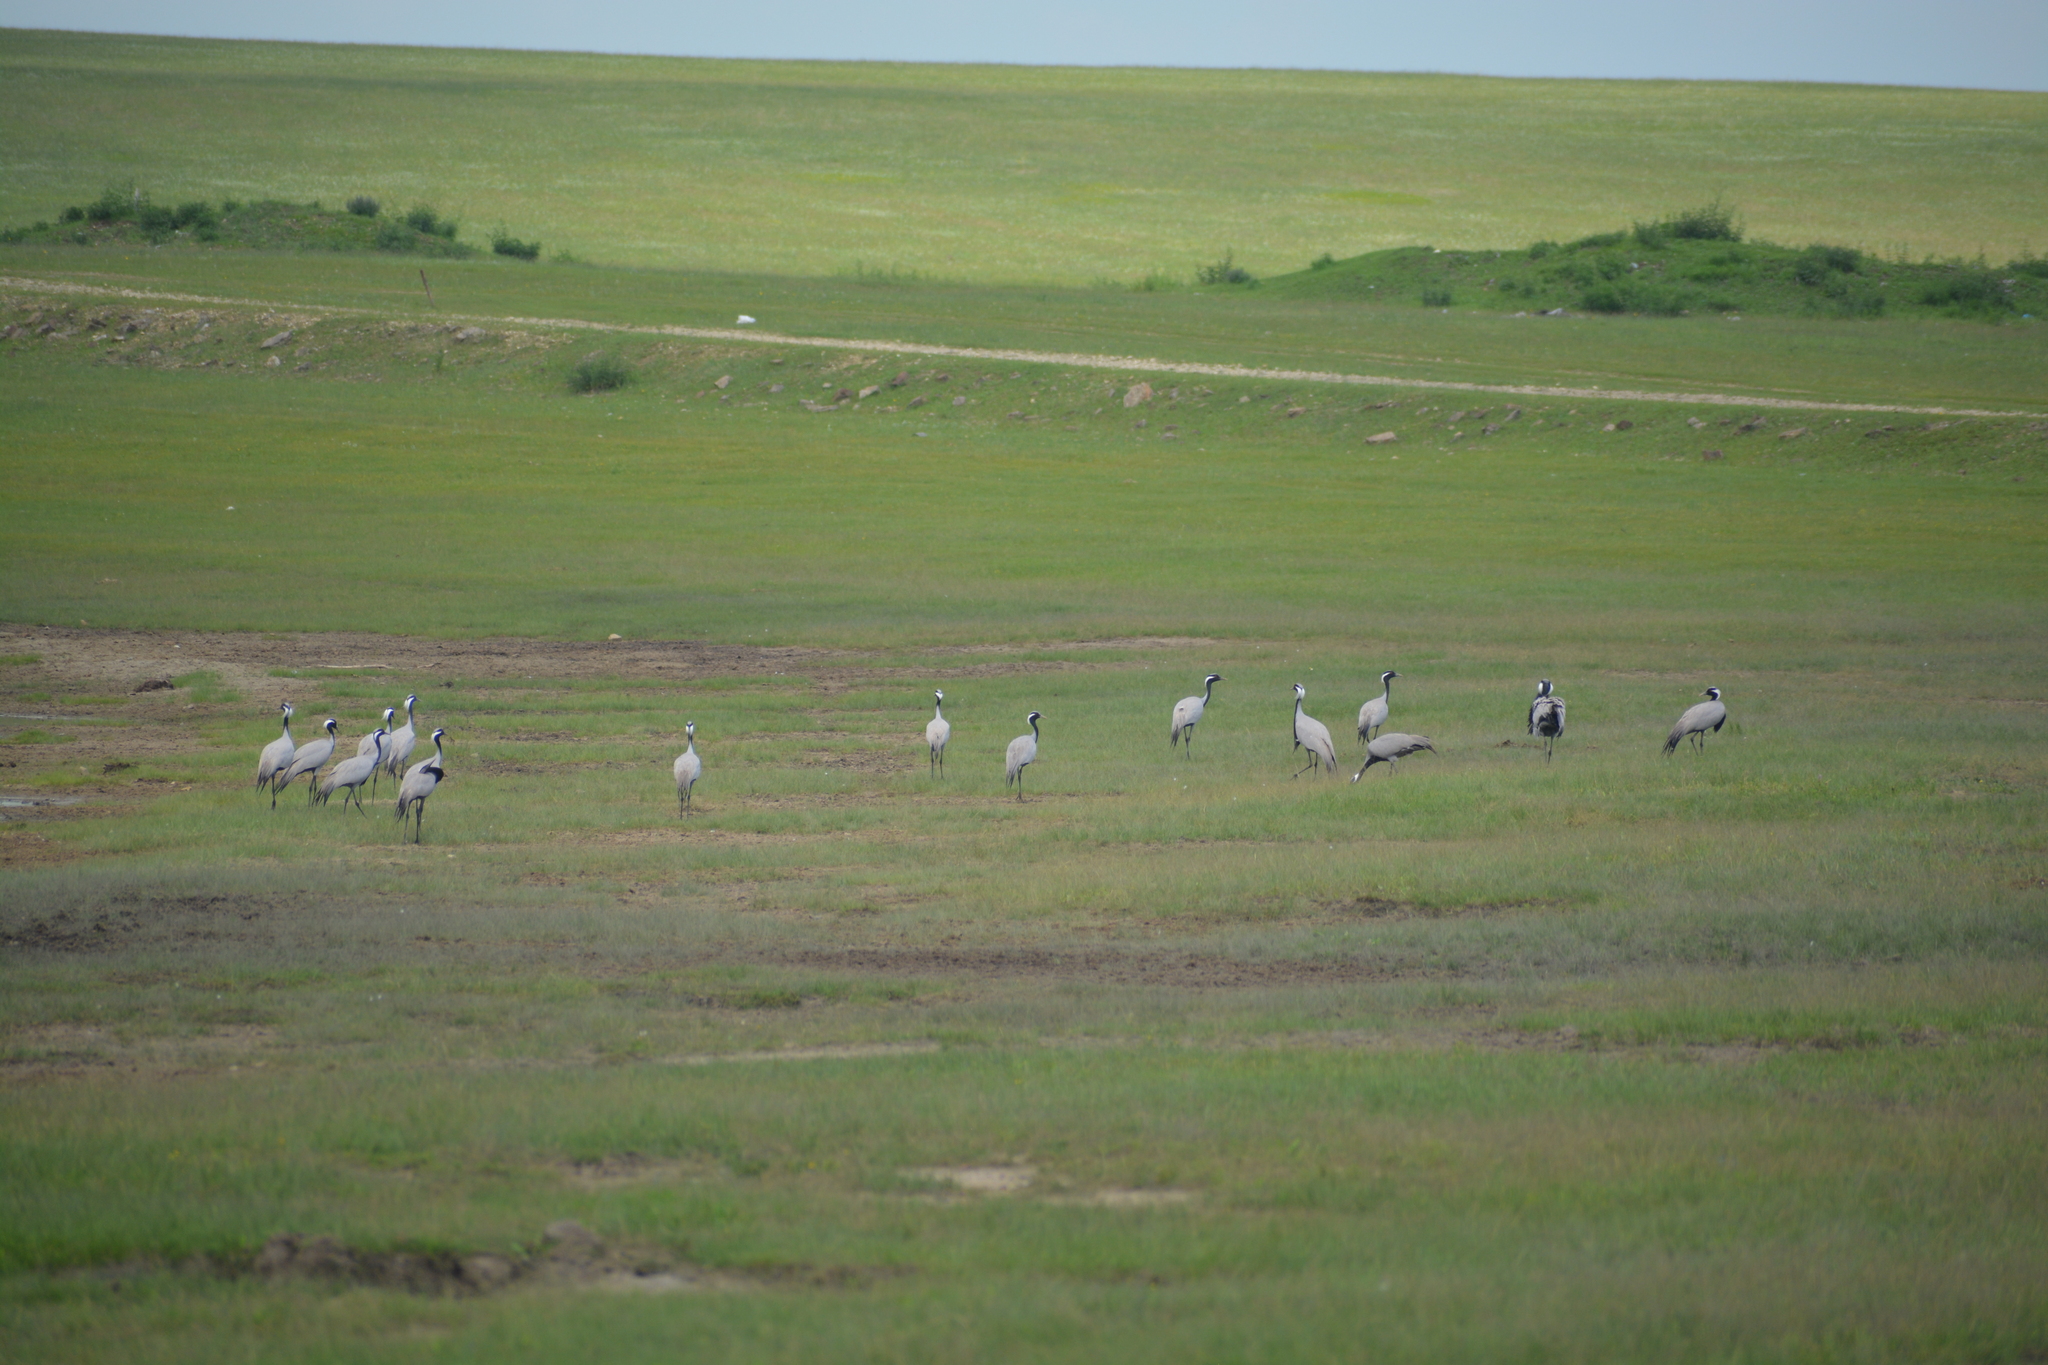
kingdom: Animalia
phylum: Chordata
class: Aves
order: Gruiformes
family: Gruidae
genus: Anthropoides
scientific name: Anthropoides virgo
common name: Demoiselle crane
